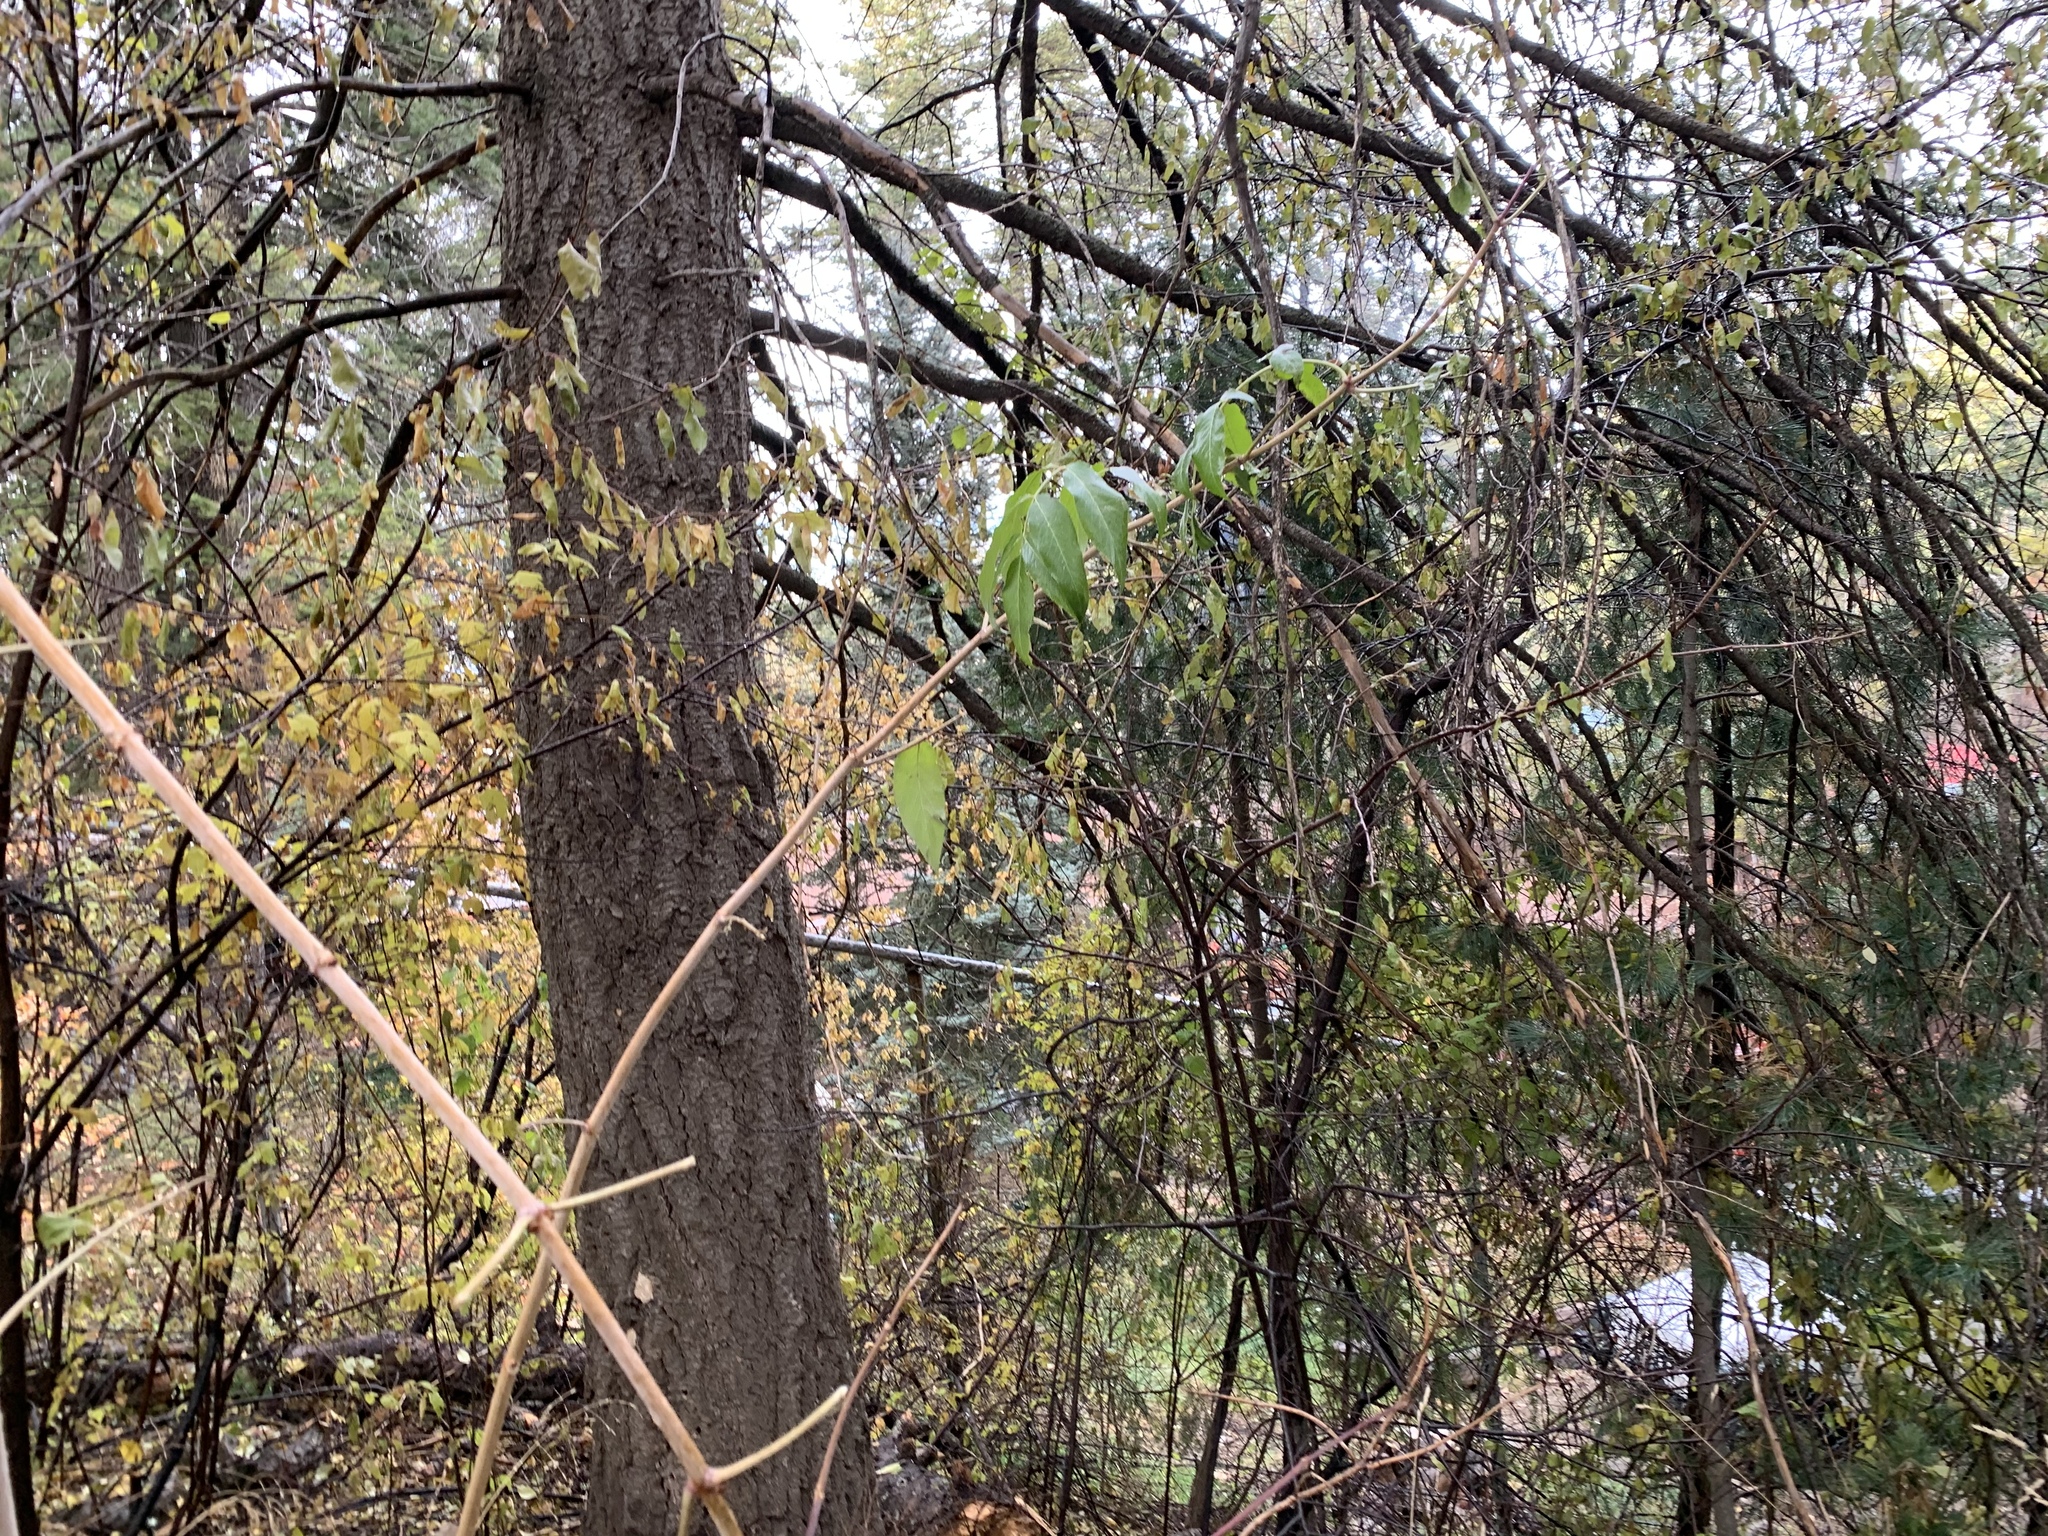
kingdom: Plantae
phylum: Tracheophyta
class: Magnoliopsida
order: Dipsacales
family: Viburnaceae
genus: Sambucus
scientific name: Sambucus cerulea
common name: Blue elder
